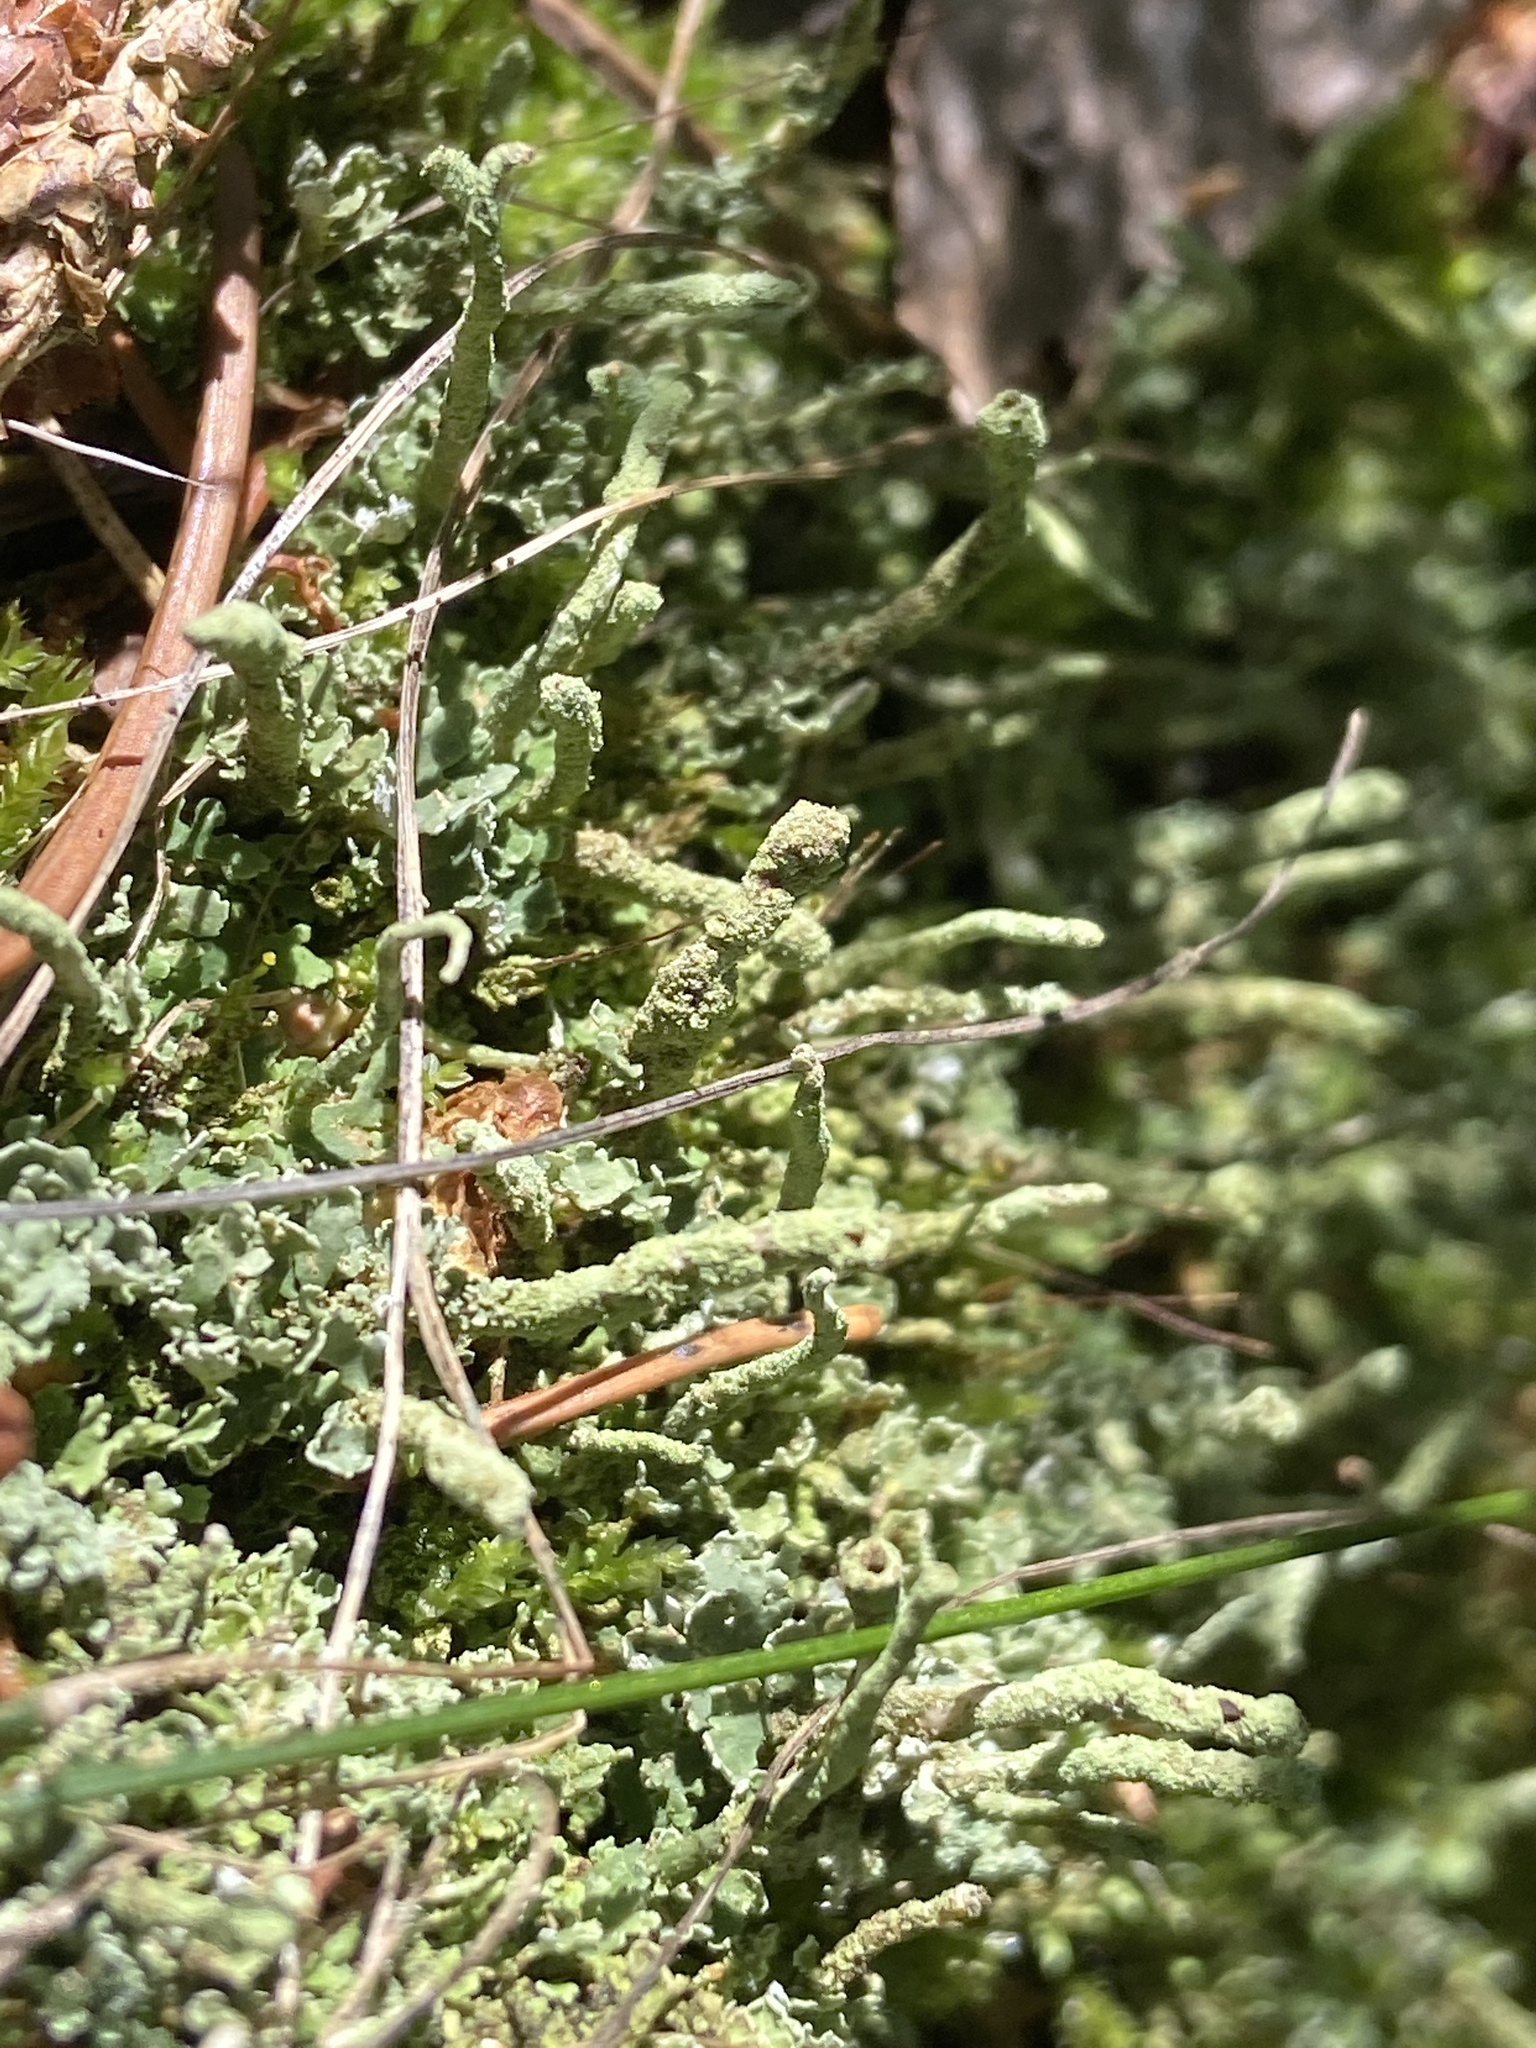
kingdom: Fungi
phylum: Ascomycota
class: Lecanoromycetes
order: Lecanorales
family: Cladoniaceae
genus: Cladonia
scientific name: Cladonia coniocraea
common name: Common powderhorn
